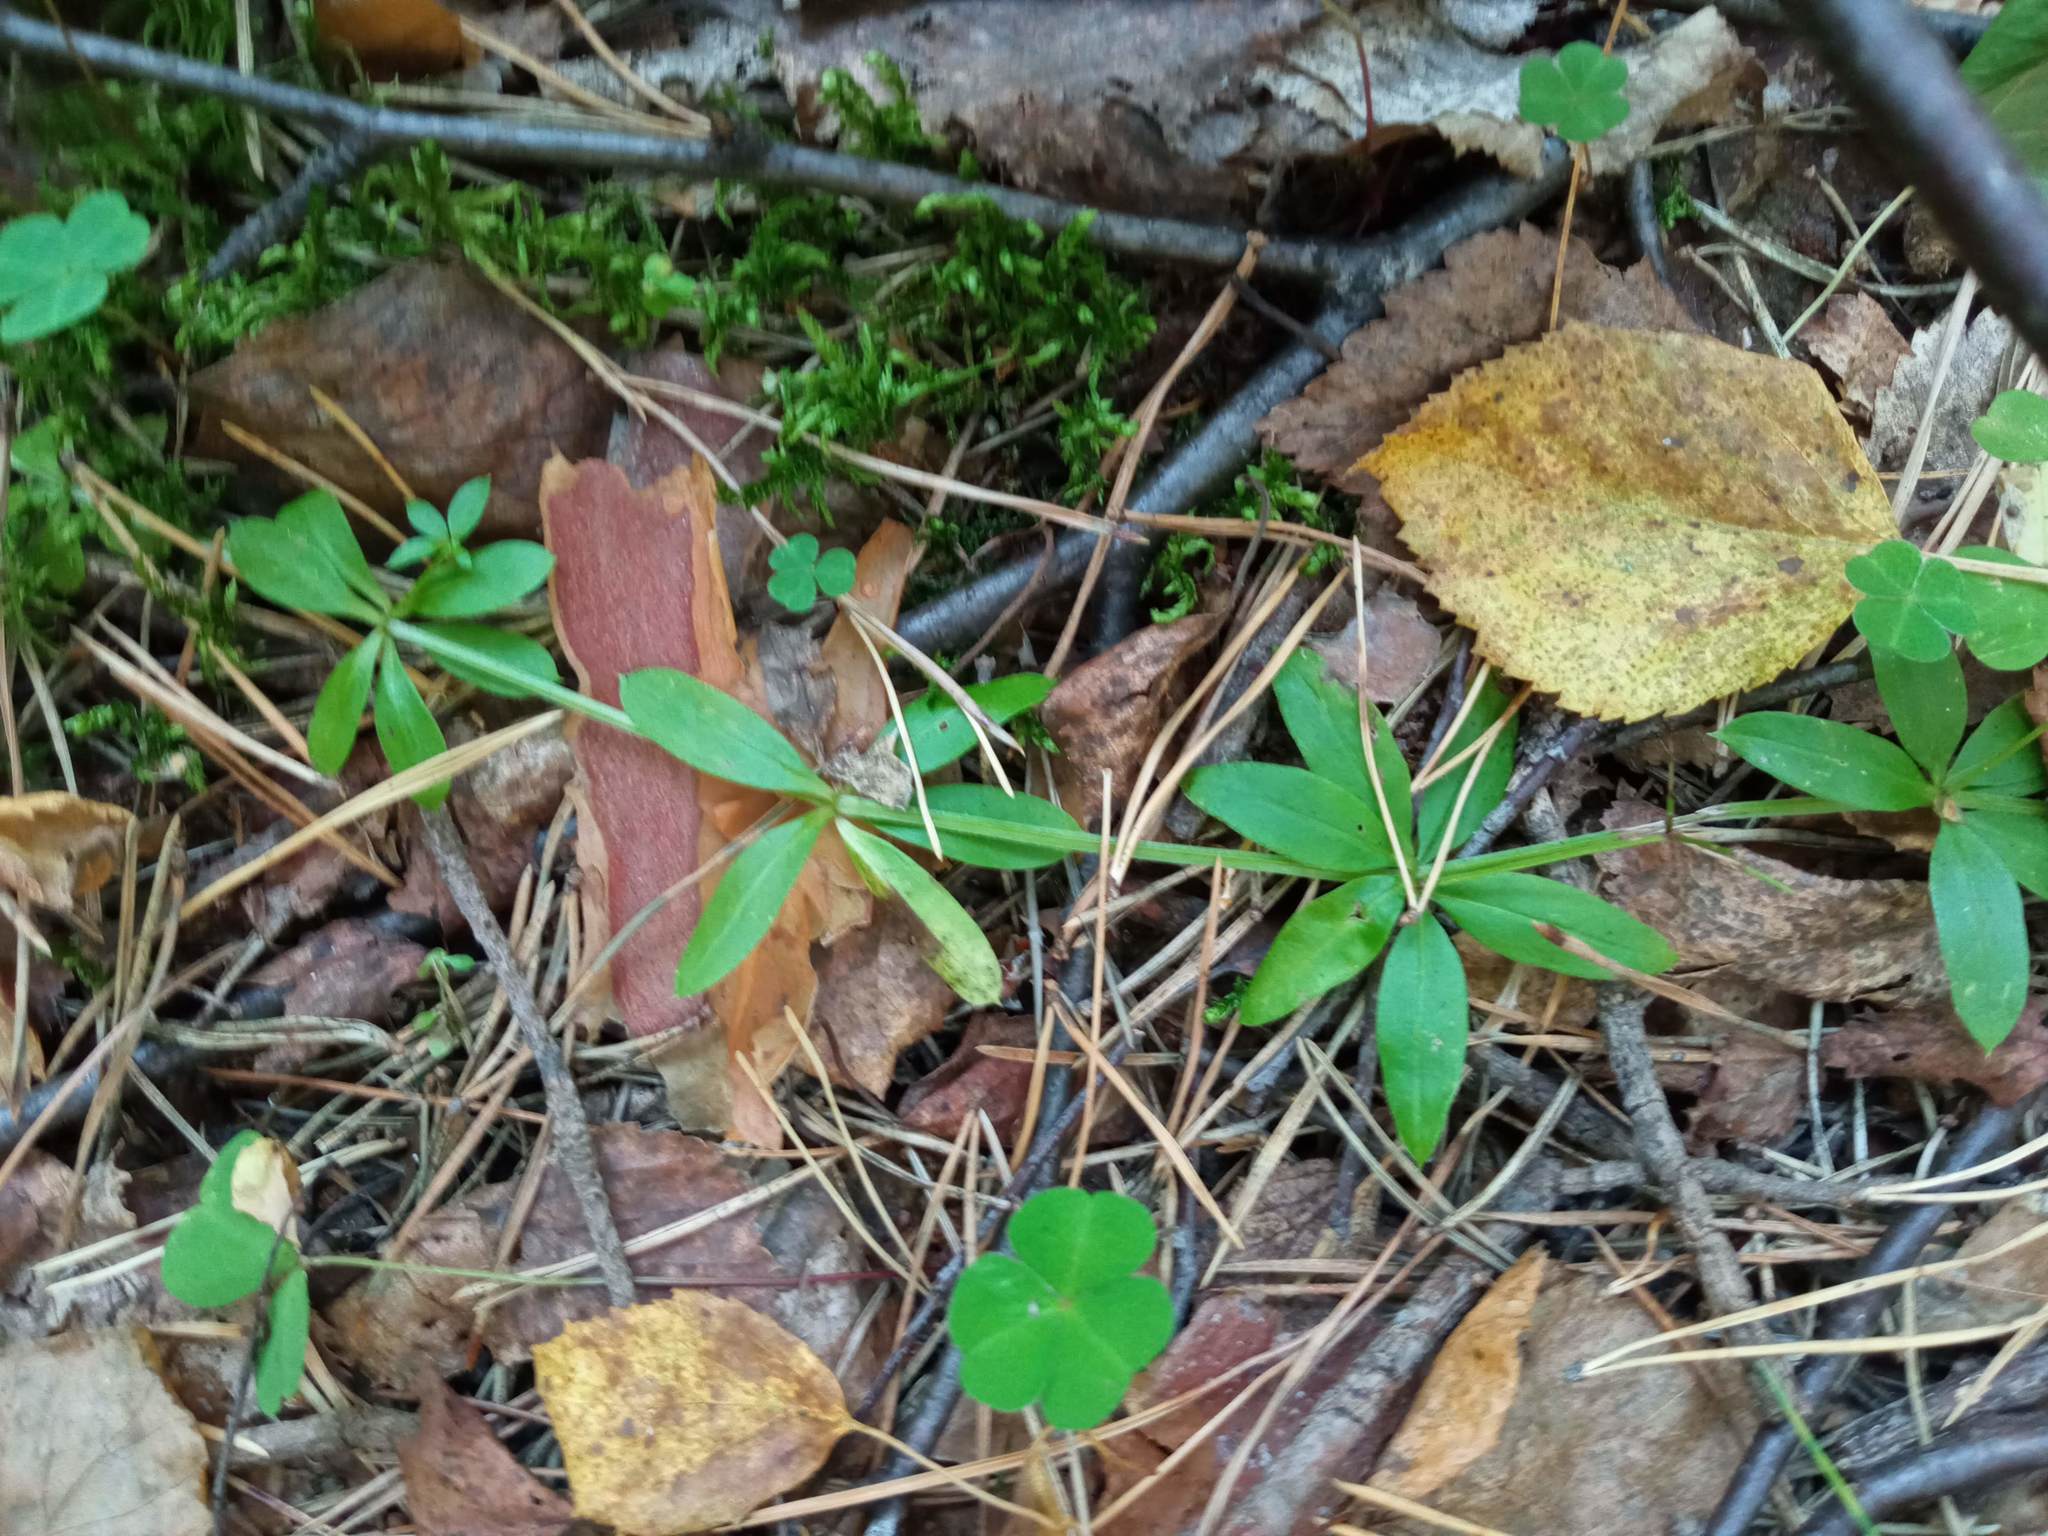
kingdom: Plantae
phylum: Tracheophyta
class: Magnoliopsida
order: Gentianales
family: Rubiaceae
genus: Galium
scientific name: Galium triflorum
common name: Fragrant bedstraw
